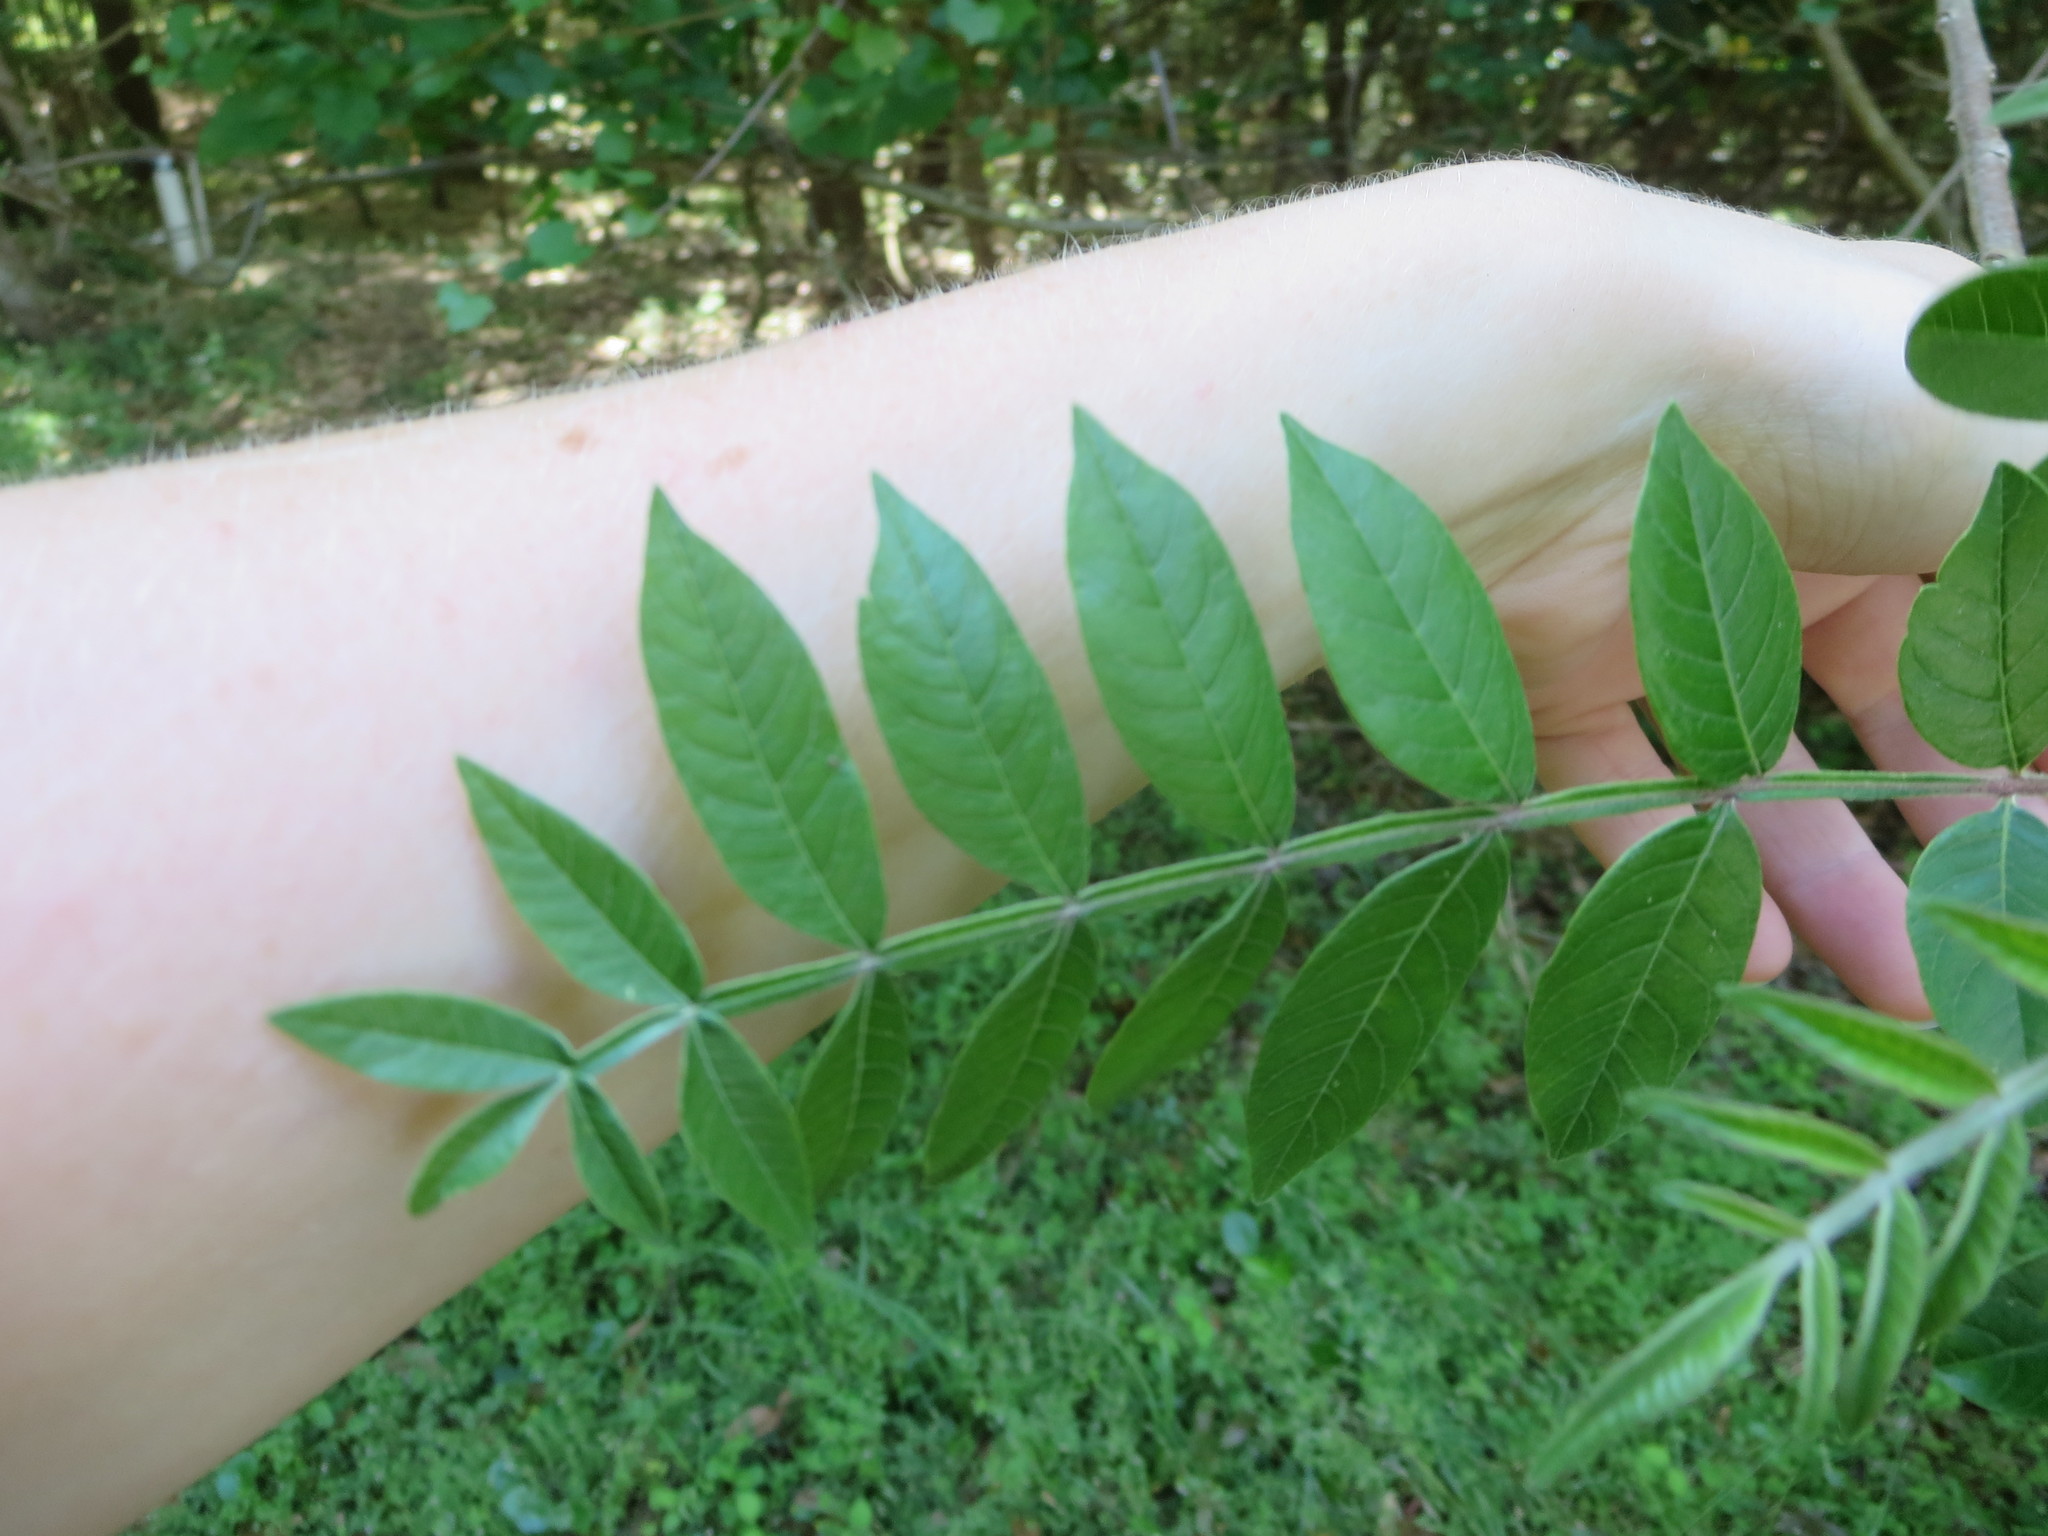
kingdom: Plantae
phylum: Tracheophyta
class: Magnoliopsida
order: Sapindales
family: Anacardiaceae
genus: Rhus
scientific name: Rhus copallina
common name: Shining sumac
